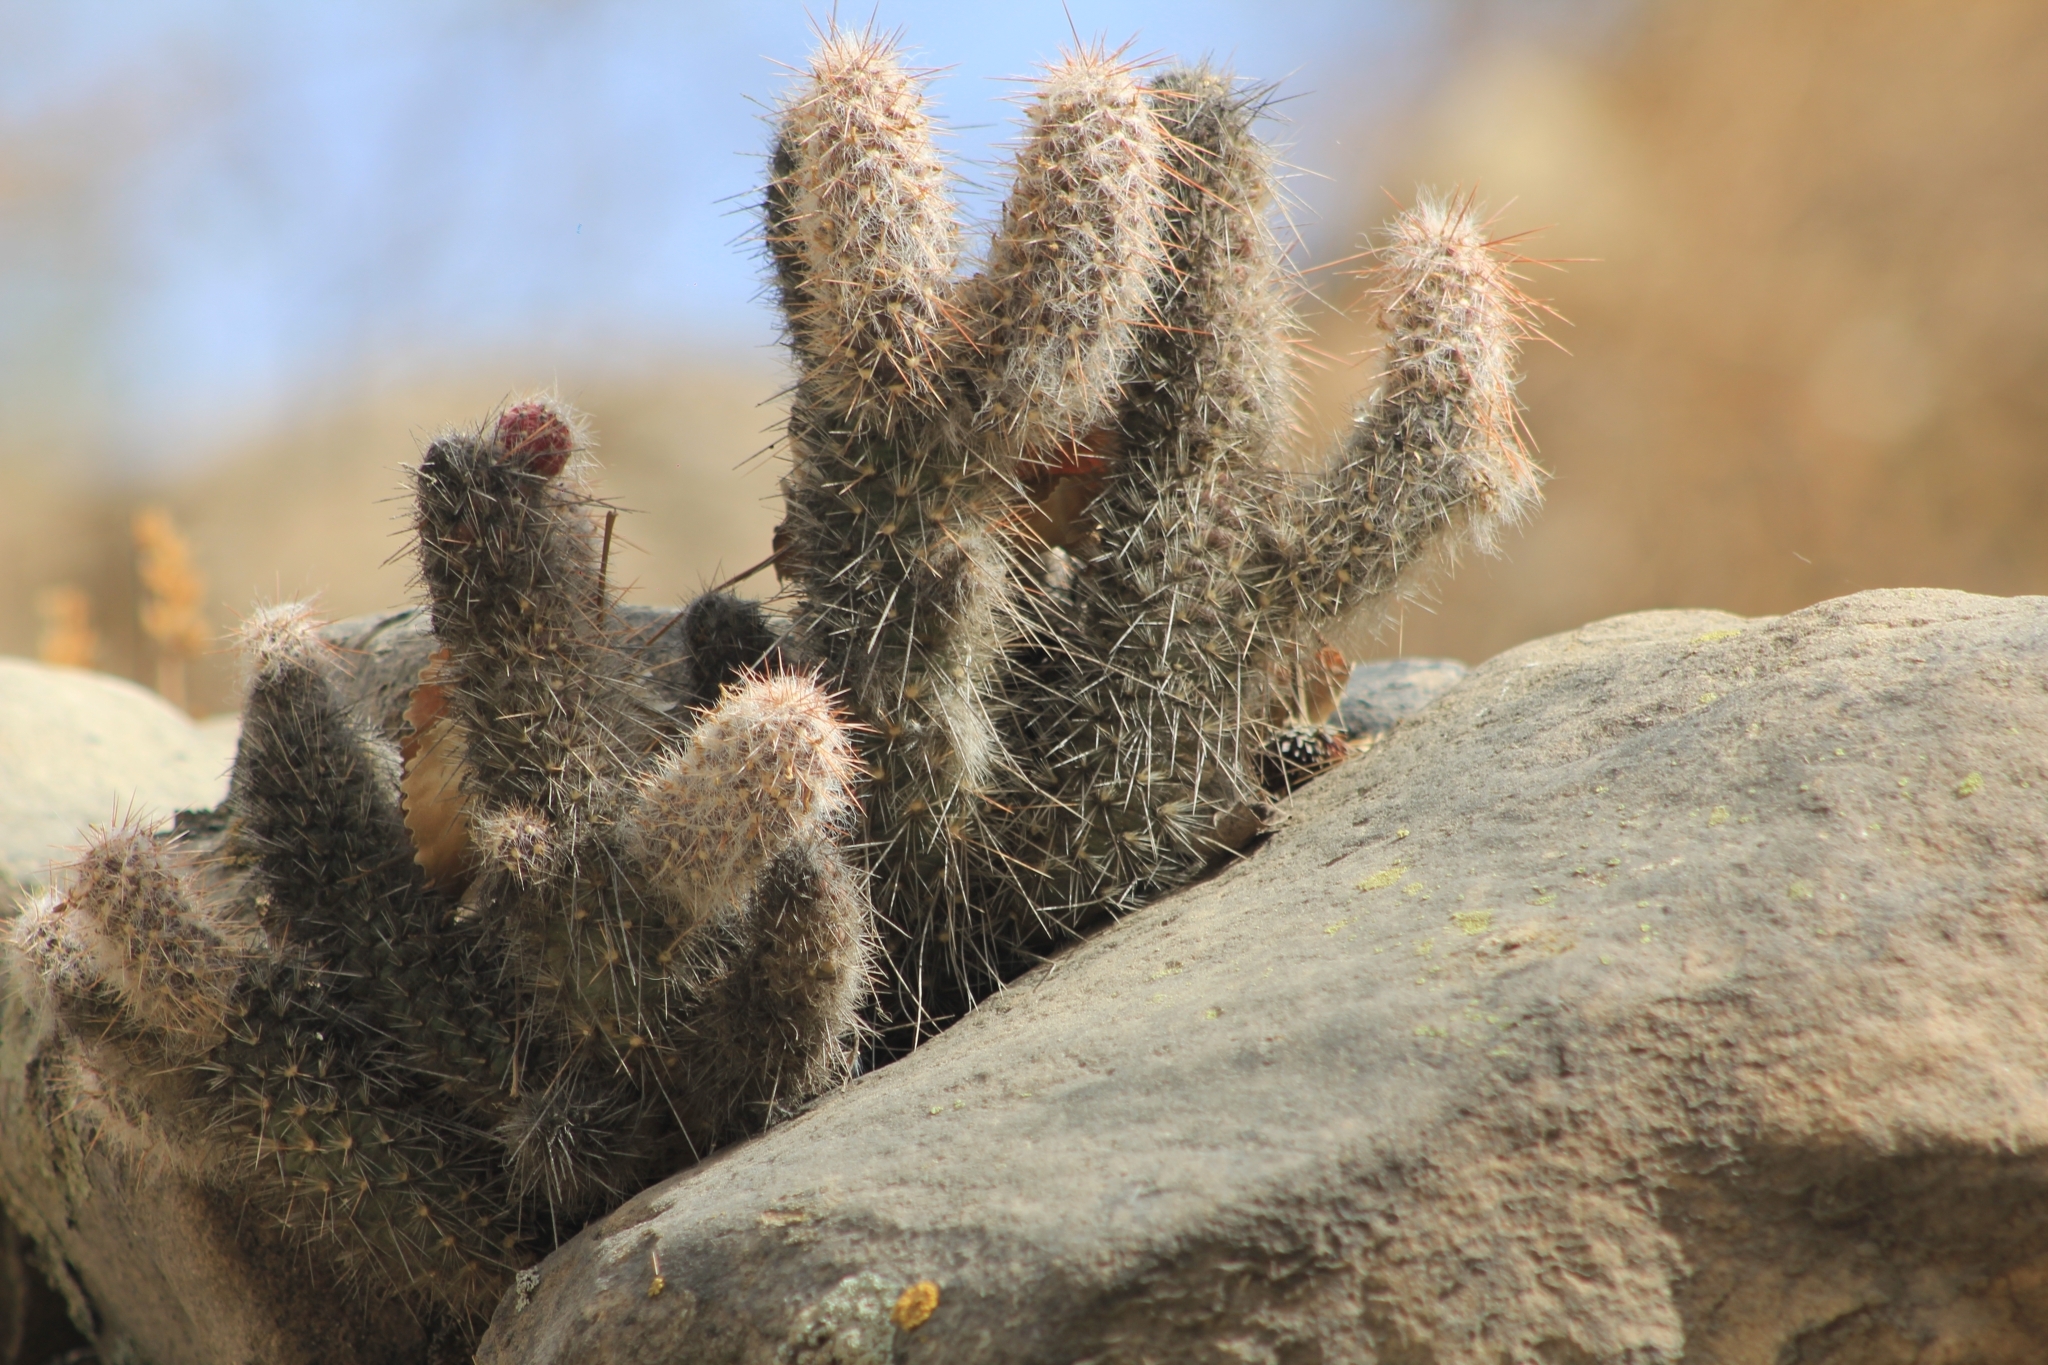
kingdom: Plantae
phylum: Tracheophyta
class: Magnoliopsida
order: Caryophyllales
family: Cactaceae
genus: Austrocylindropuntia
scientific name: Austrocylindropuntia shaferi
